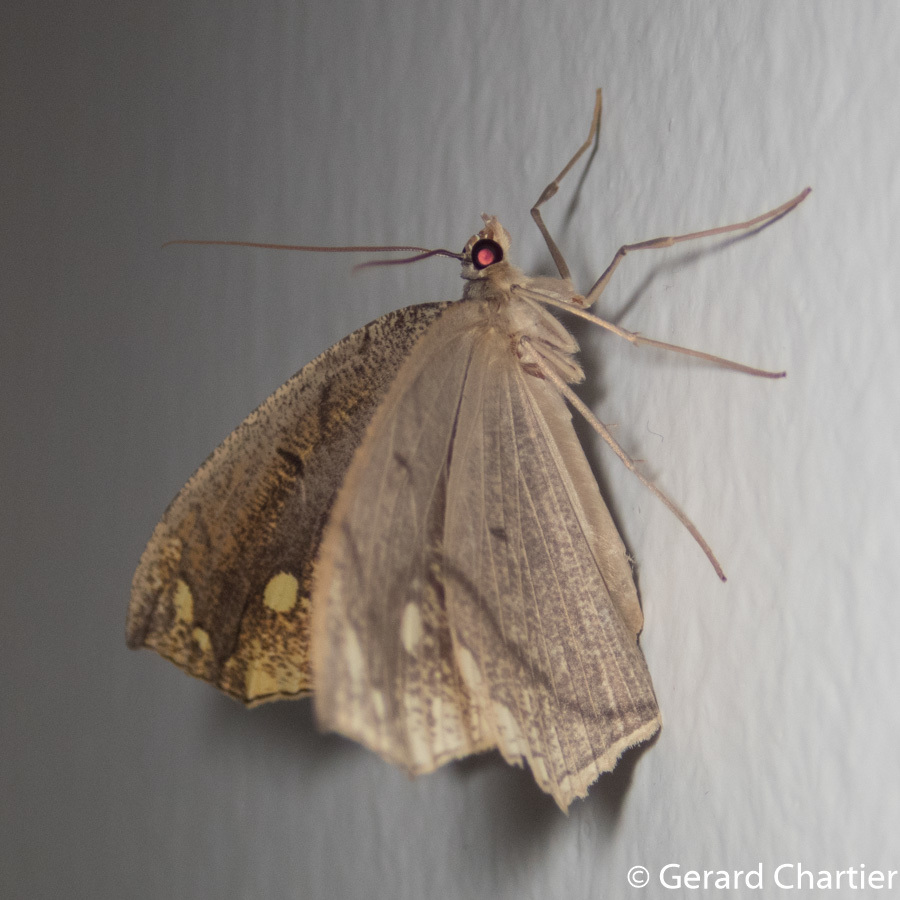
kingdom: Animalia
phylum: Arthropoda
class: Insecta
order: Lepidoptera
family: Geometridae
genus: Pareumelea
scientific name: Pareumelea eugeniata
